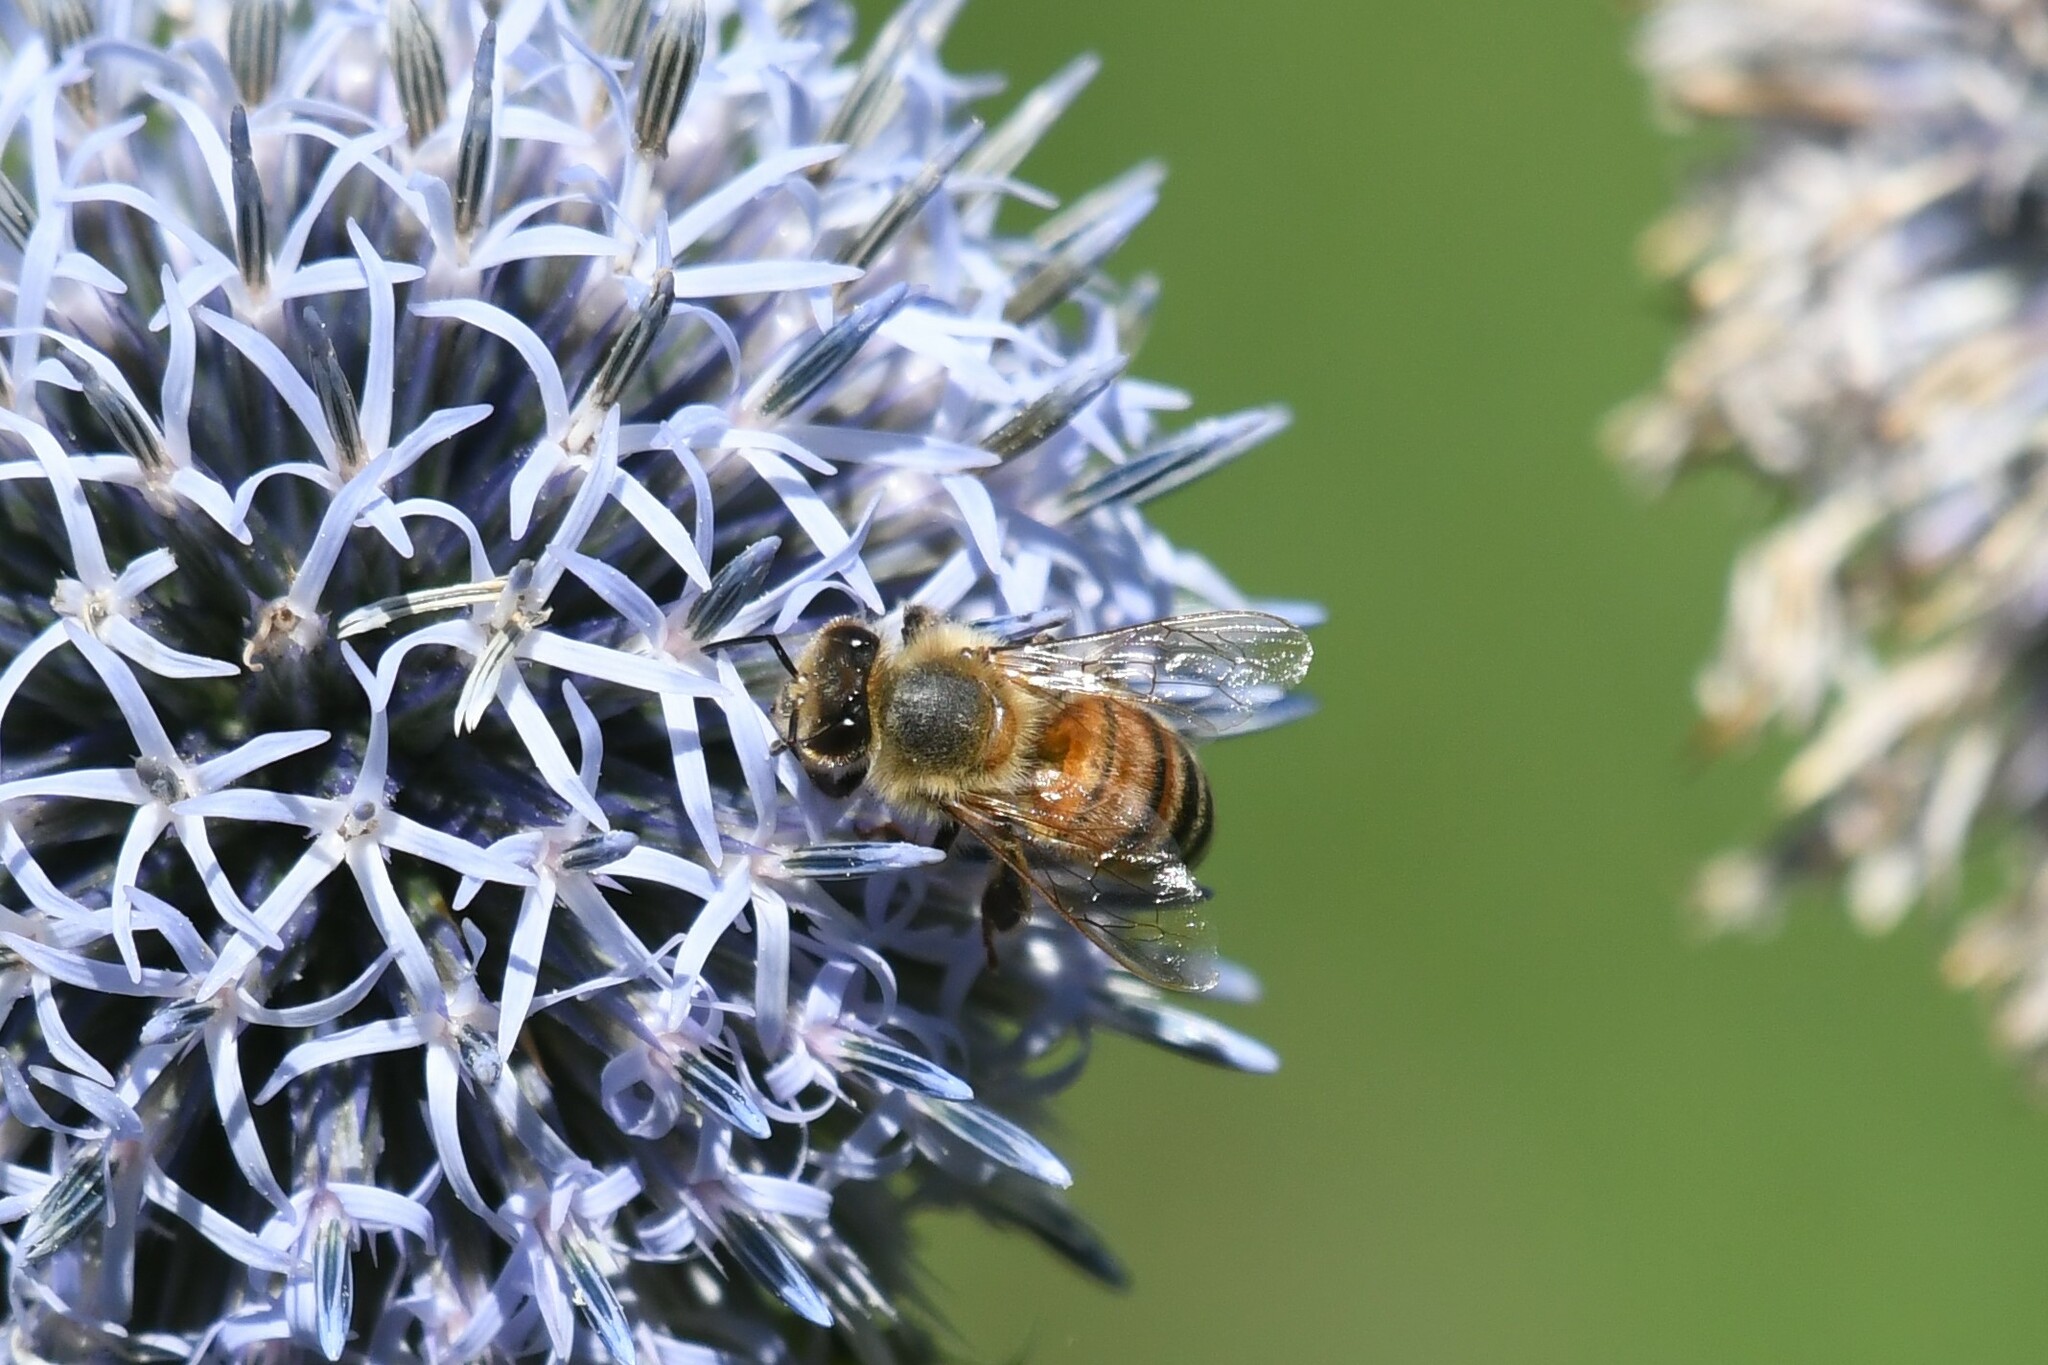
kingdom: Animalia
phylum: Arthropoda
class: Insecta
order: Hymenoptera
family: Apidae
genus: Apis
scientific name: Apis mellifera
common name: Honey bee
